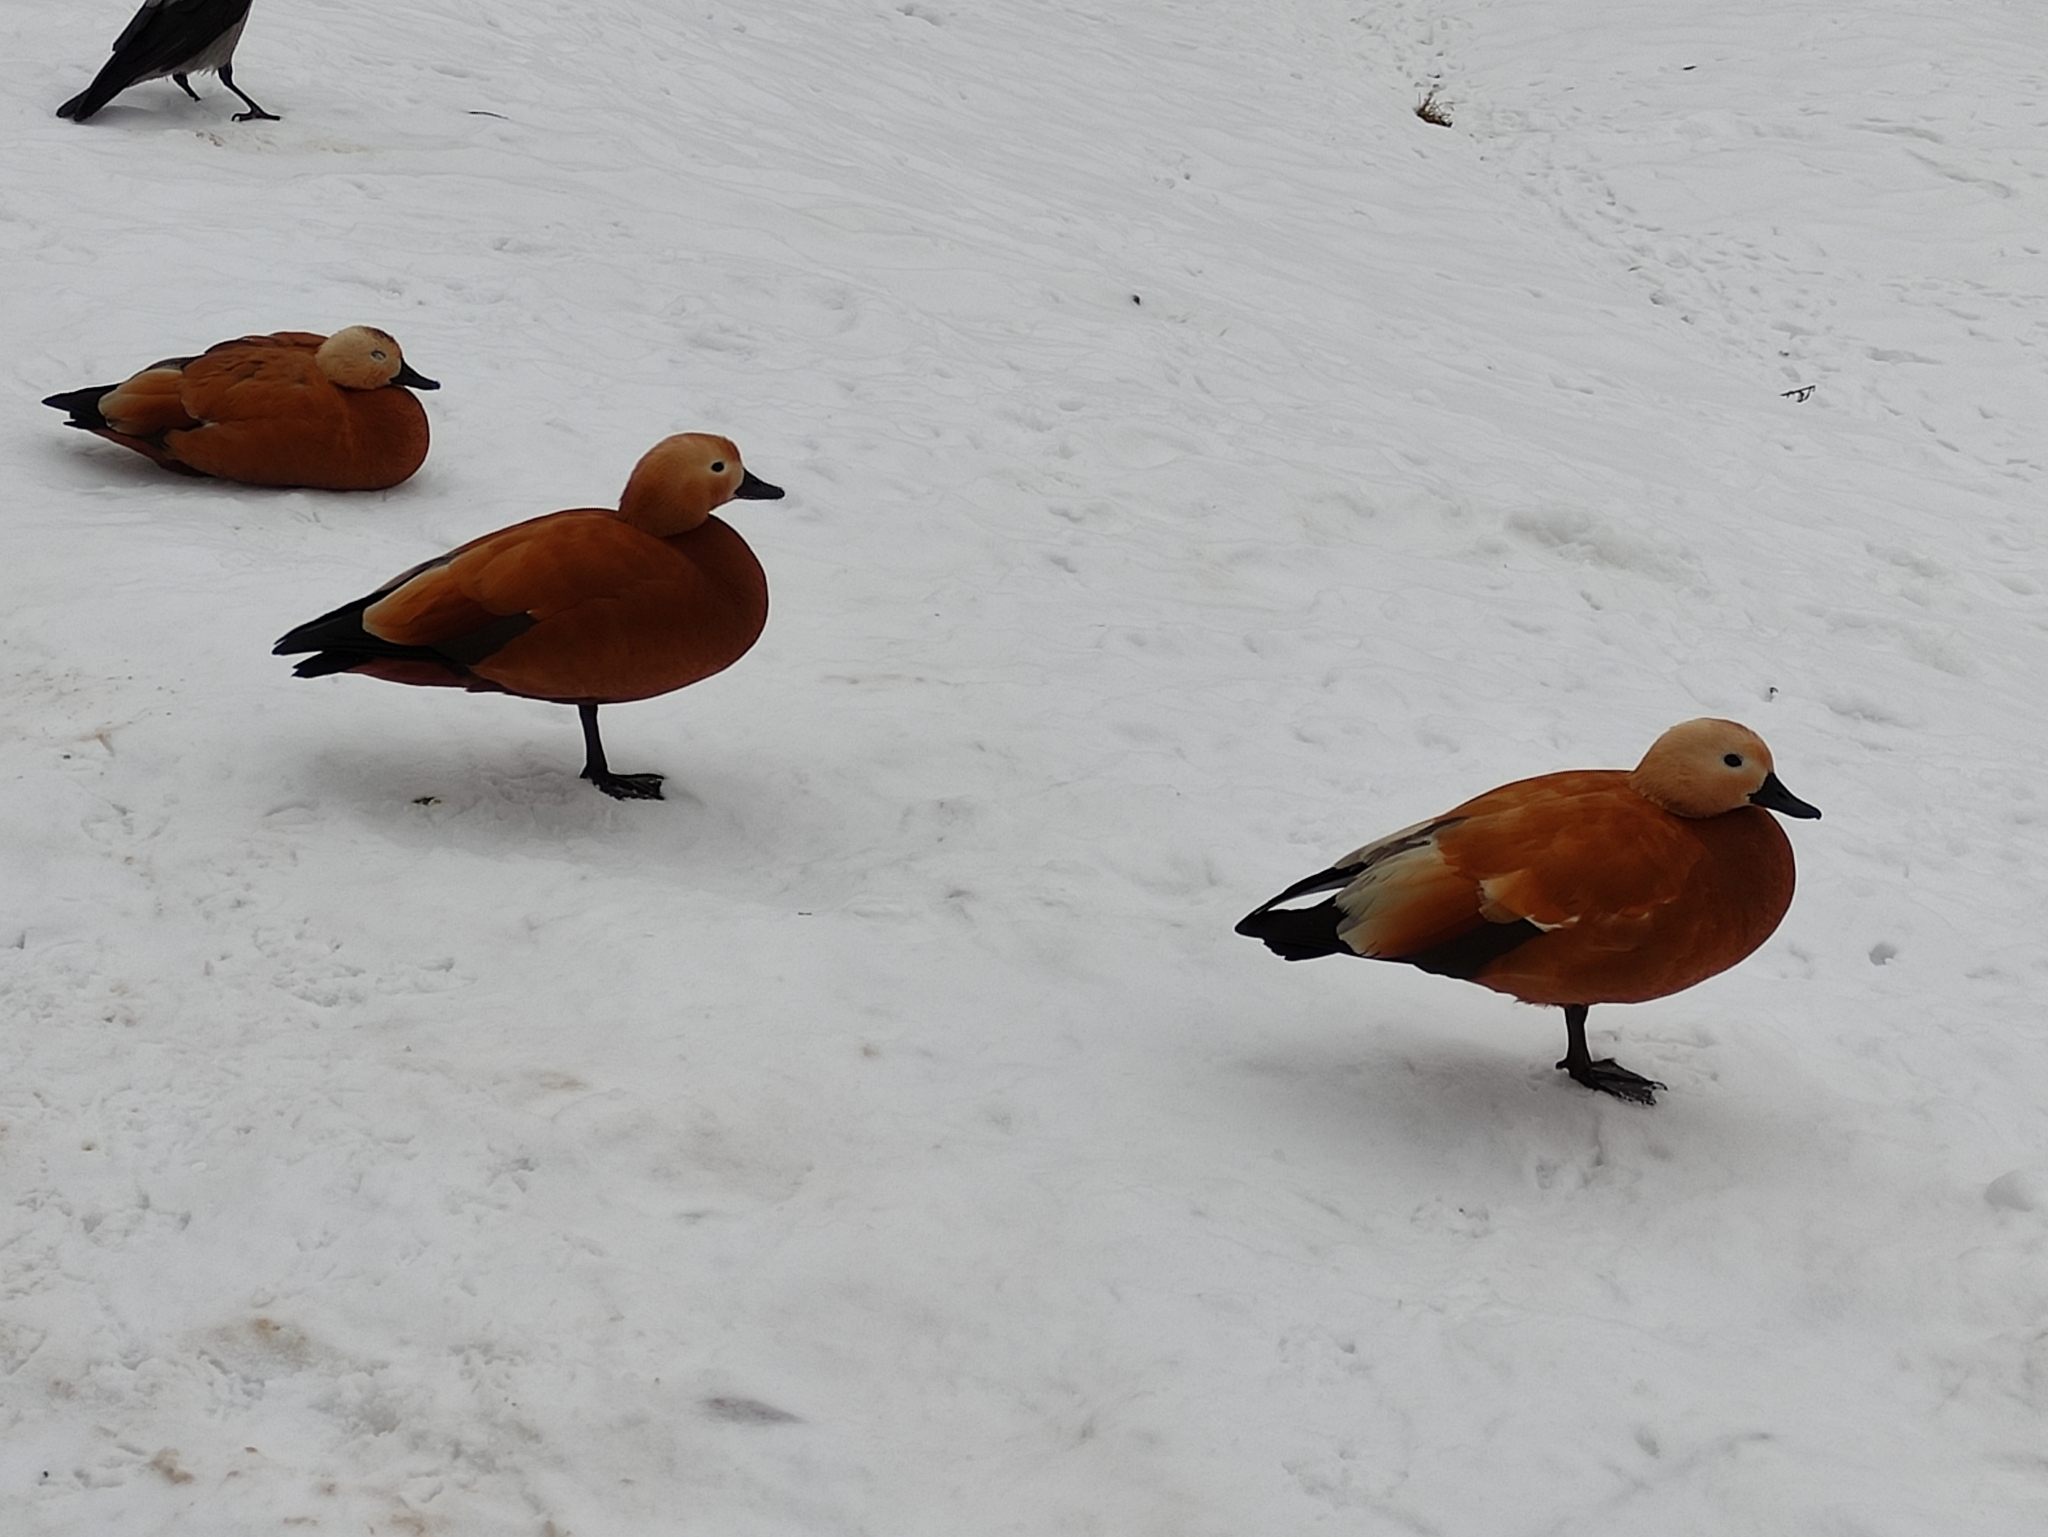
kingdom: Animalia
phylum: Chordata
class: Aves
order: Anseriformes
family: Anatidae
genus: Tadorna
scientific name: Tadorna ferruginea
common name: Ruddy shelduck
